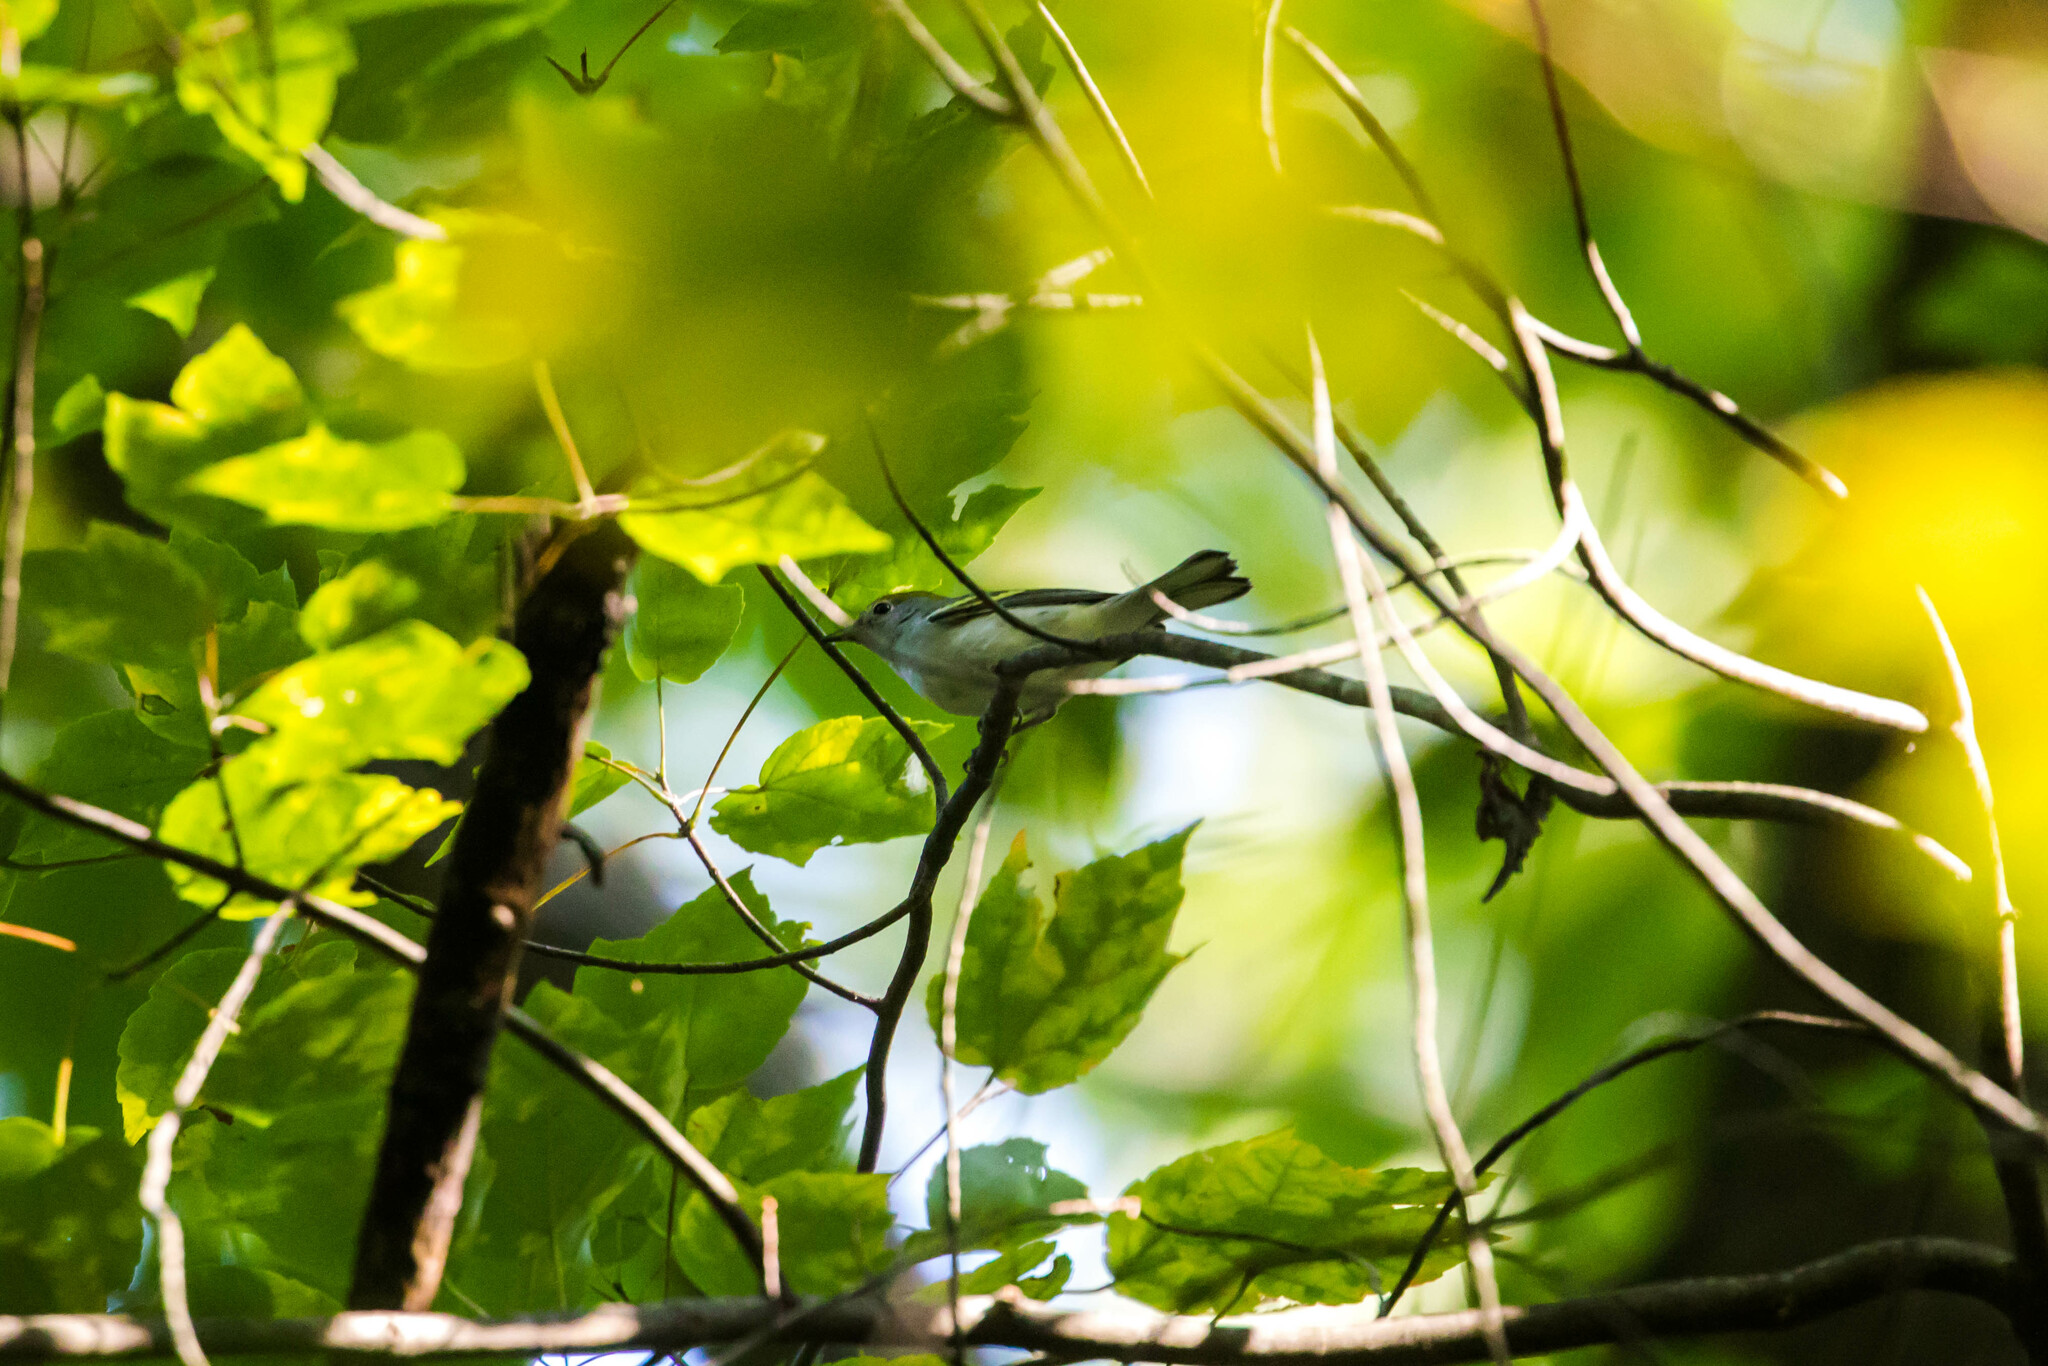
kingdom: Animalia
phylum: Chordata
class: Aves
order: Passeriformes
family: Parulidae
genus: Setophaga
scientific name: Setophaga pensylvanica
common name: Chestnut-sided warbler
